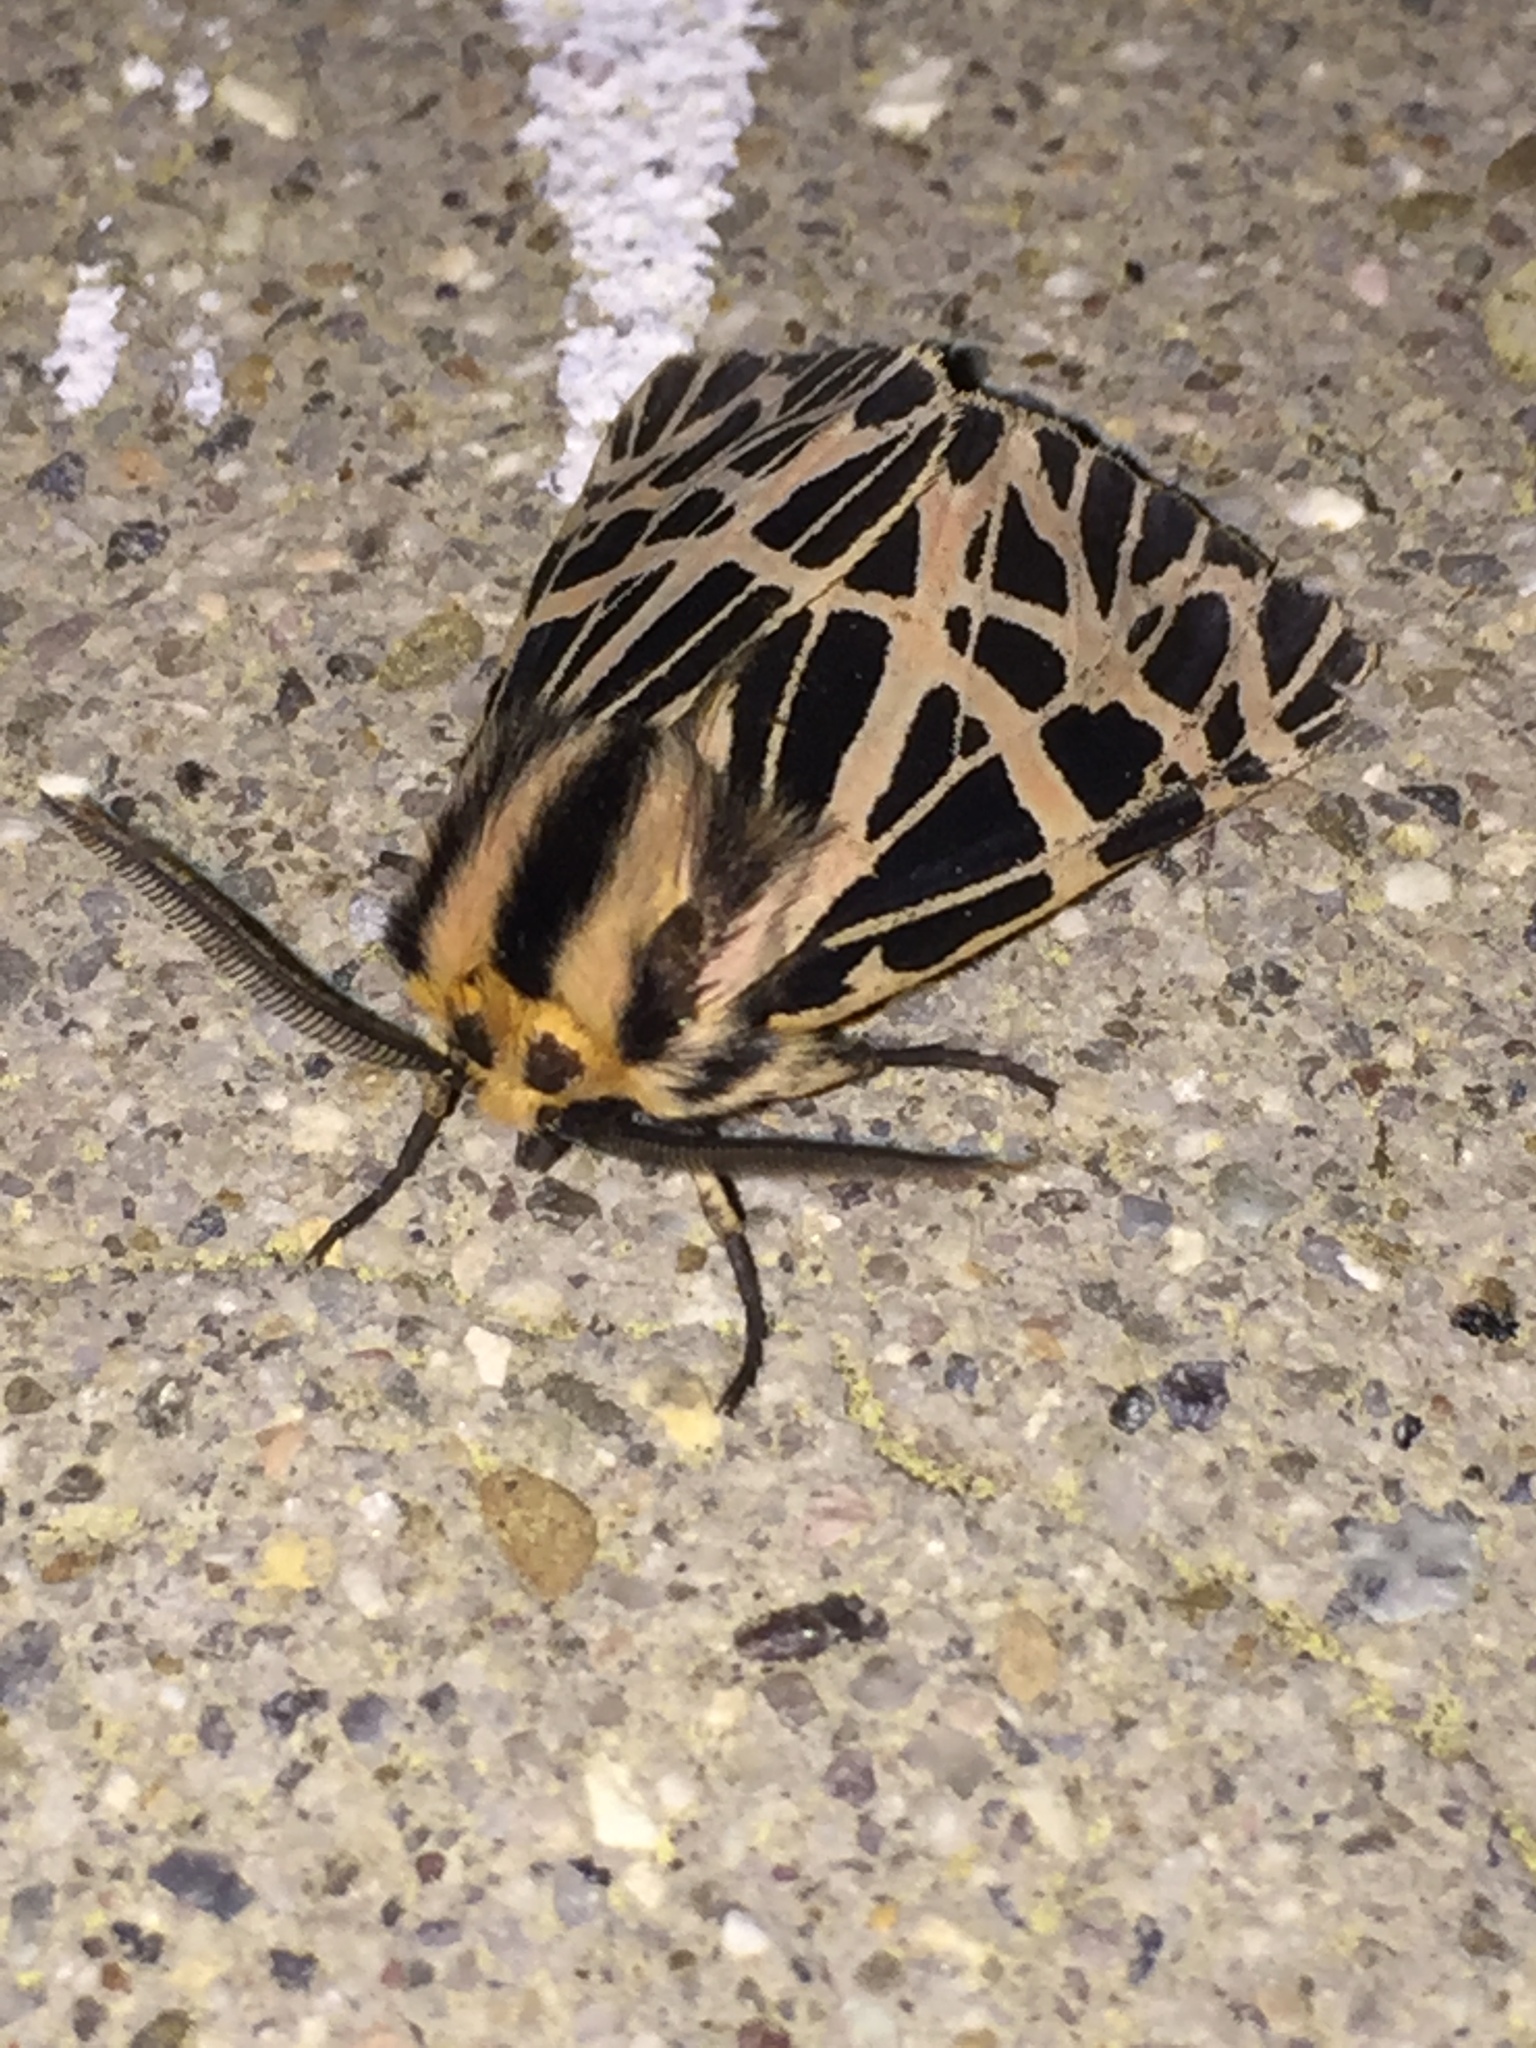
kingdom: Animalia
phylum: Arthropoda
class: Insecta
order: Lepidoptera
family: Erebidae
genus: Apantesis
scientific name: Apantesis
